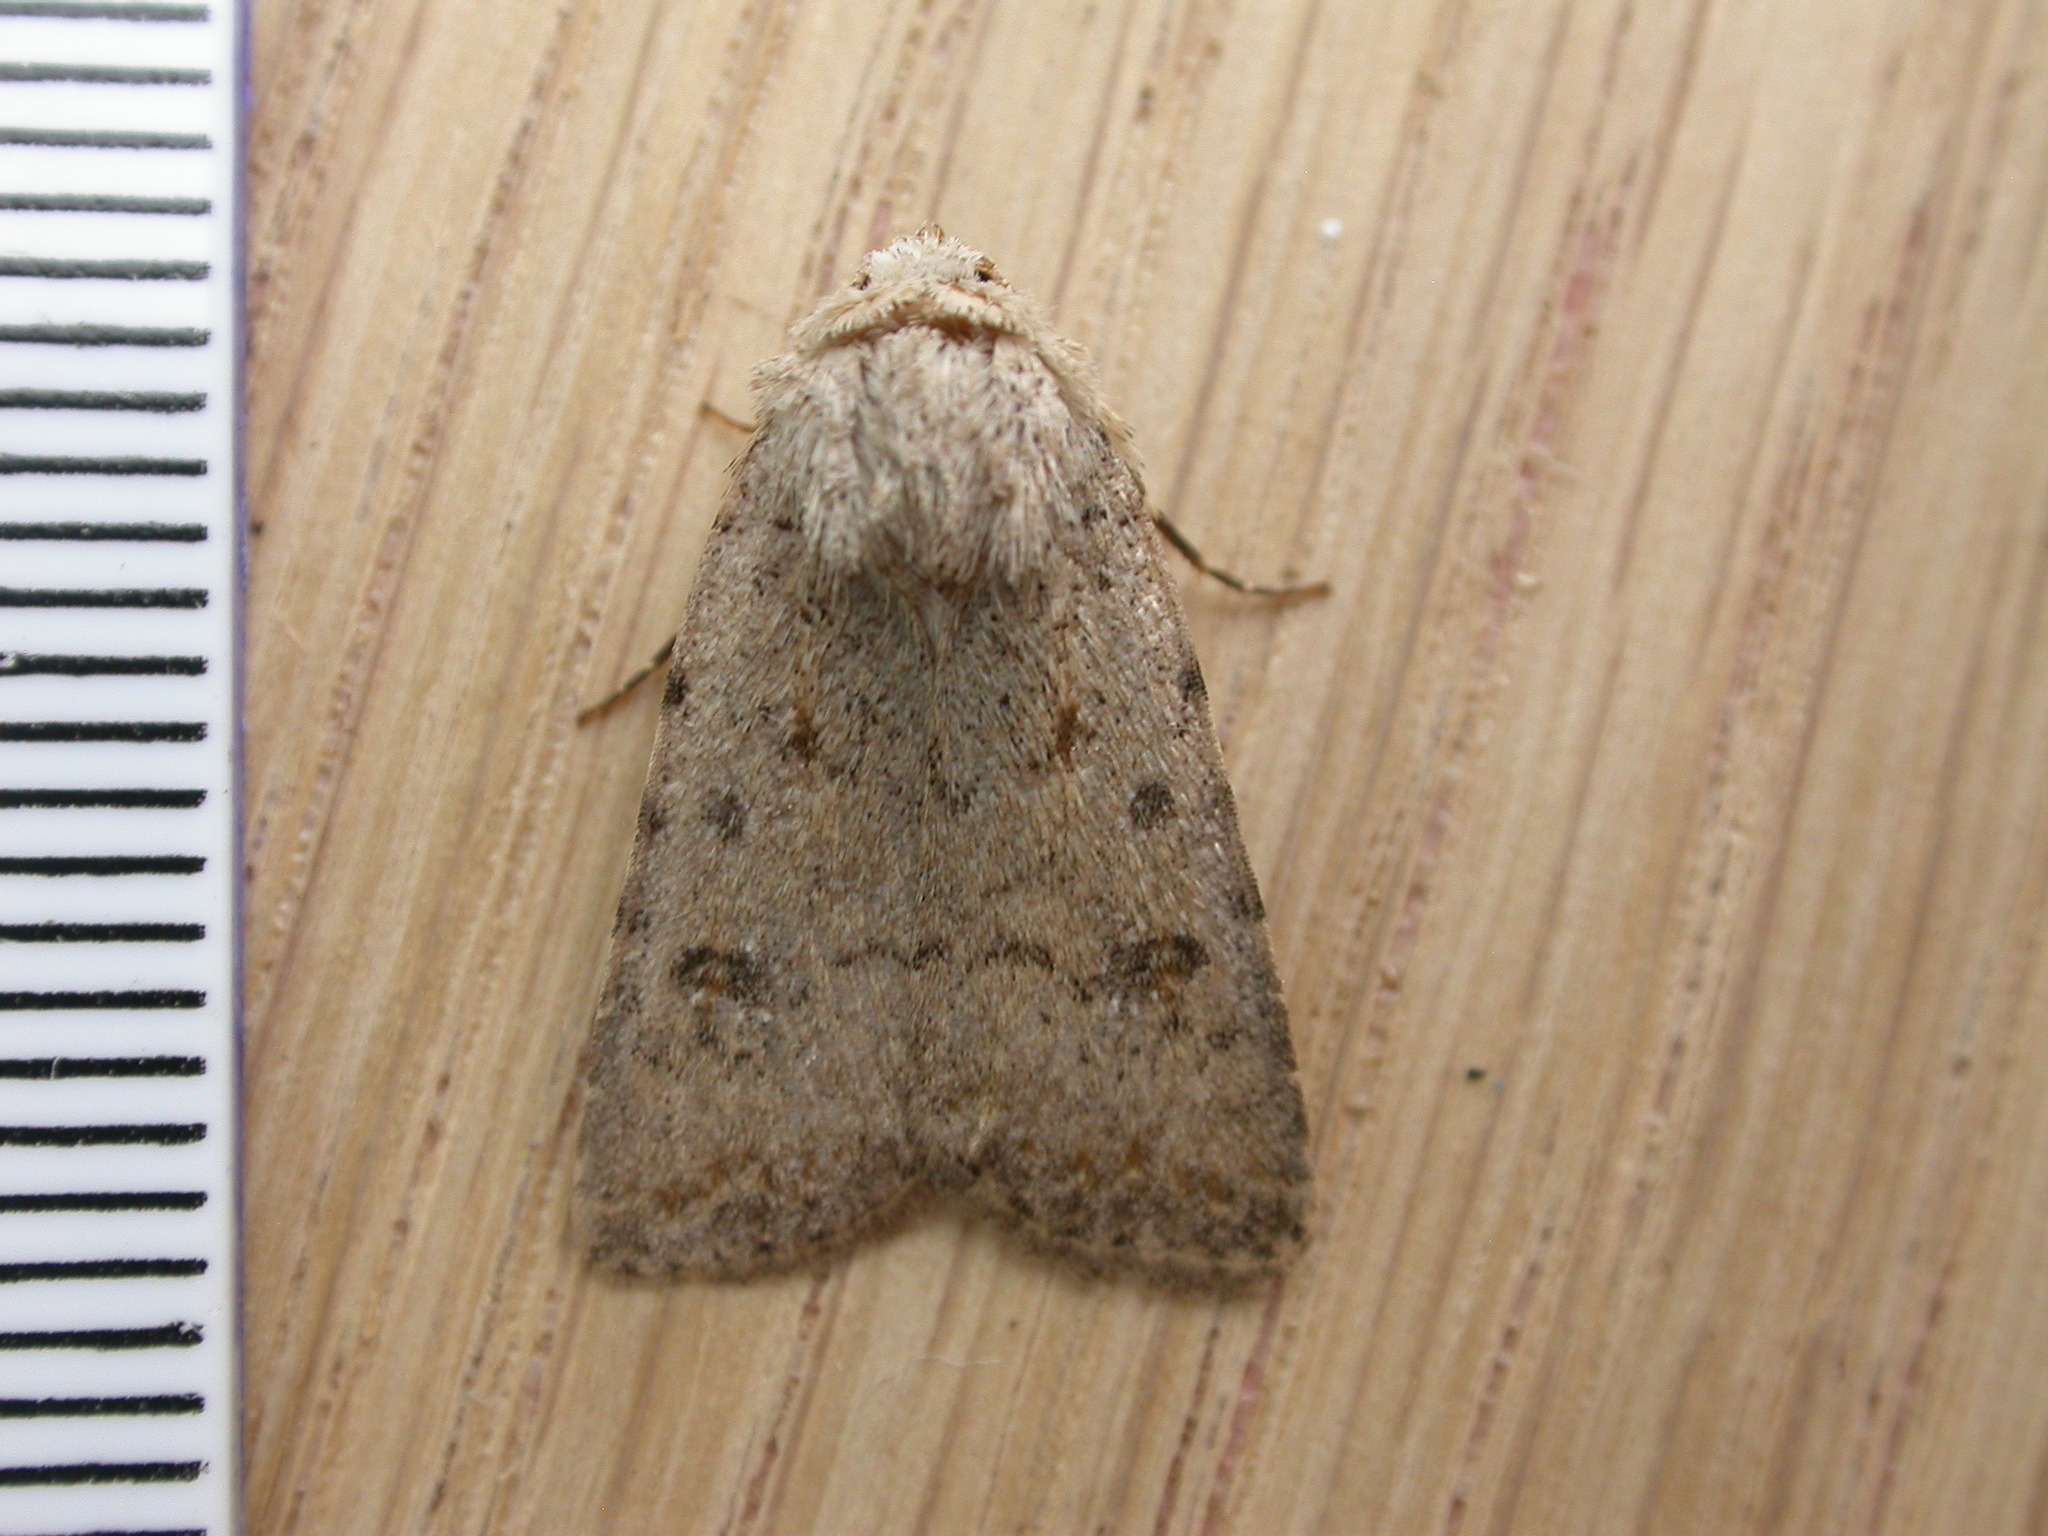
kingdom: Animalia
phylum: Arthropoda
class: Insecta
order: Lepidoptera
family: Noctuidae
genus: Caradrina
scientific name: Caradrina clavipalpis
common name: Pale mottled willow
